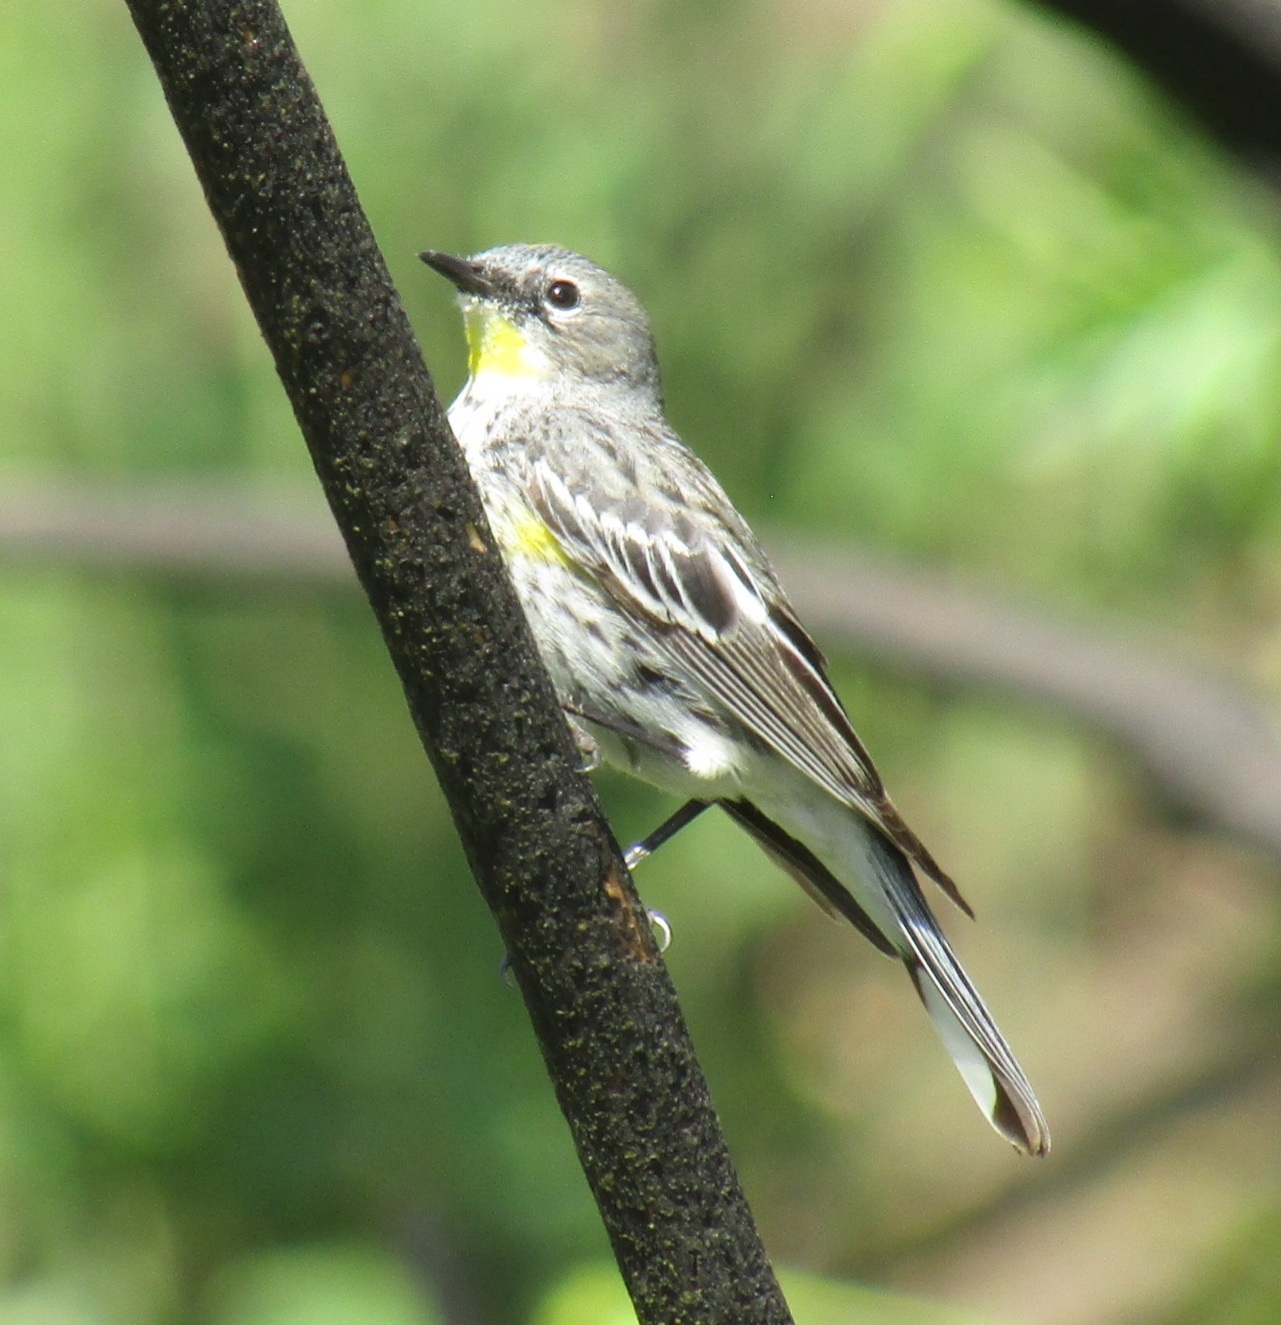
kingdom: Animalia
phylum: Chordata
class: Aves
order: Passeriformes
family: Parulidae
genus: Setophaga
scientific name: Setophaga coronata
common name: Myrtle warbler
